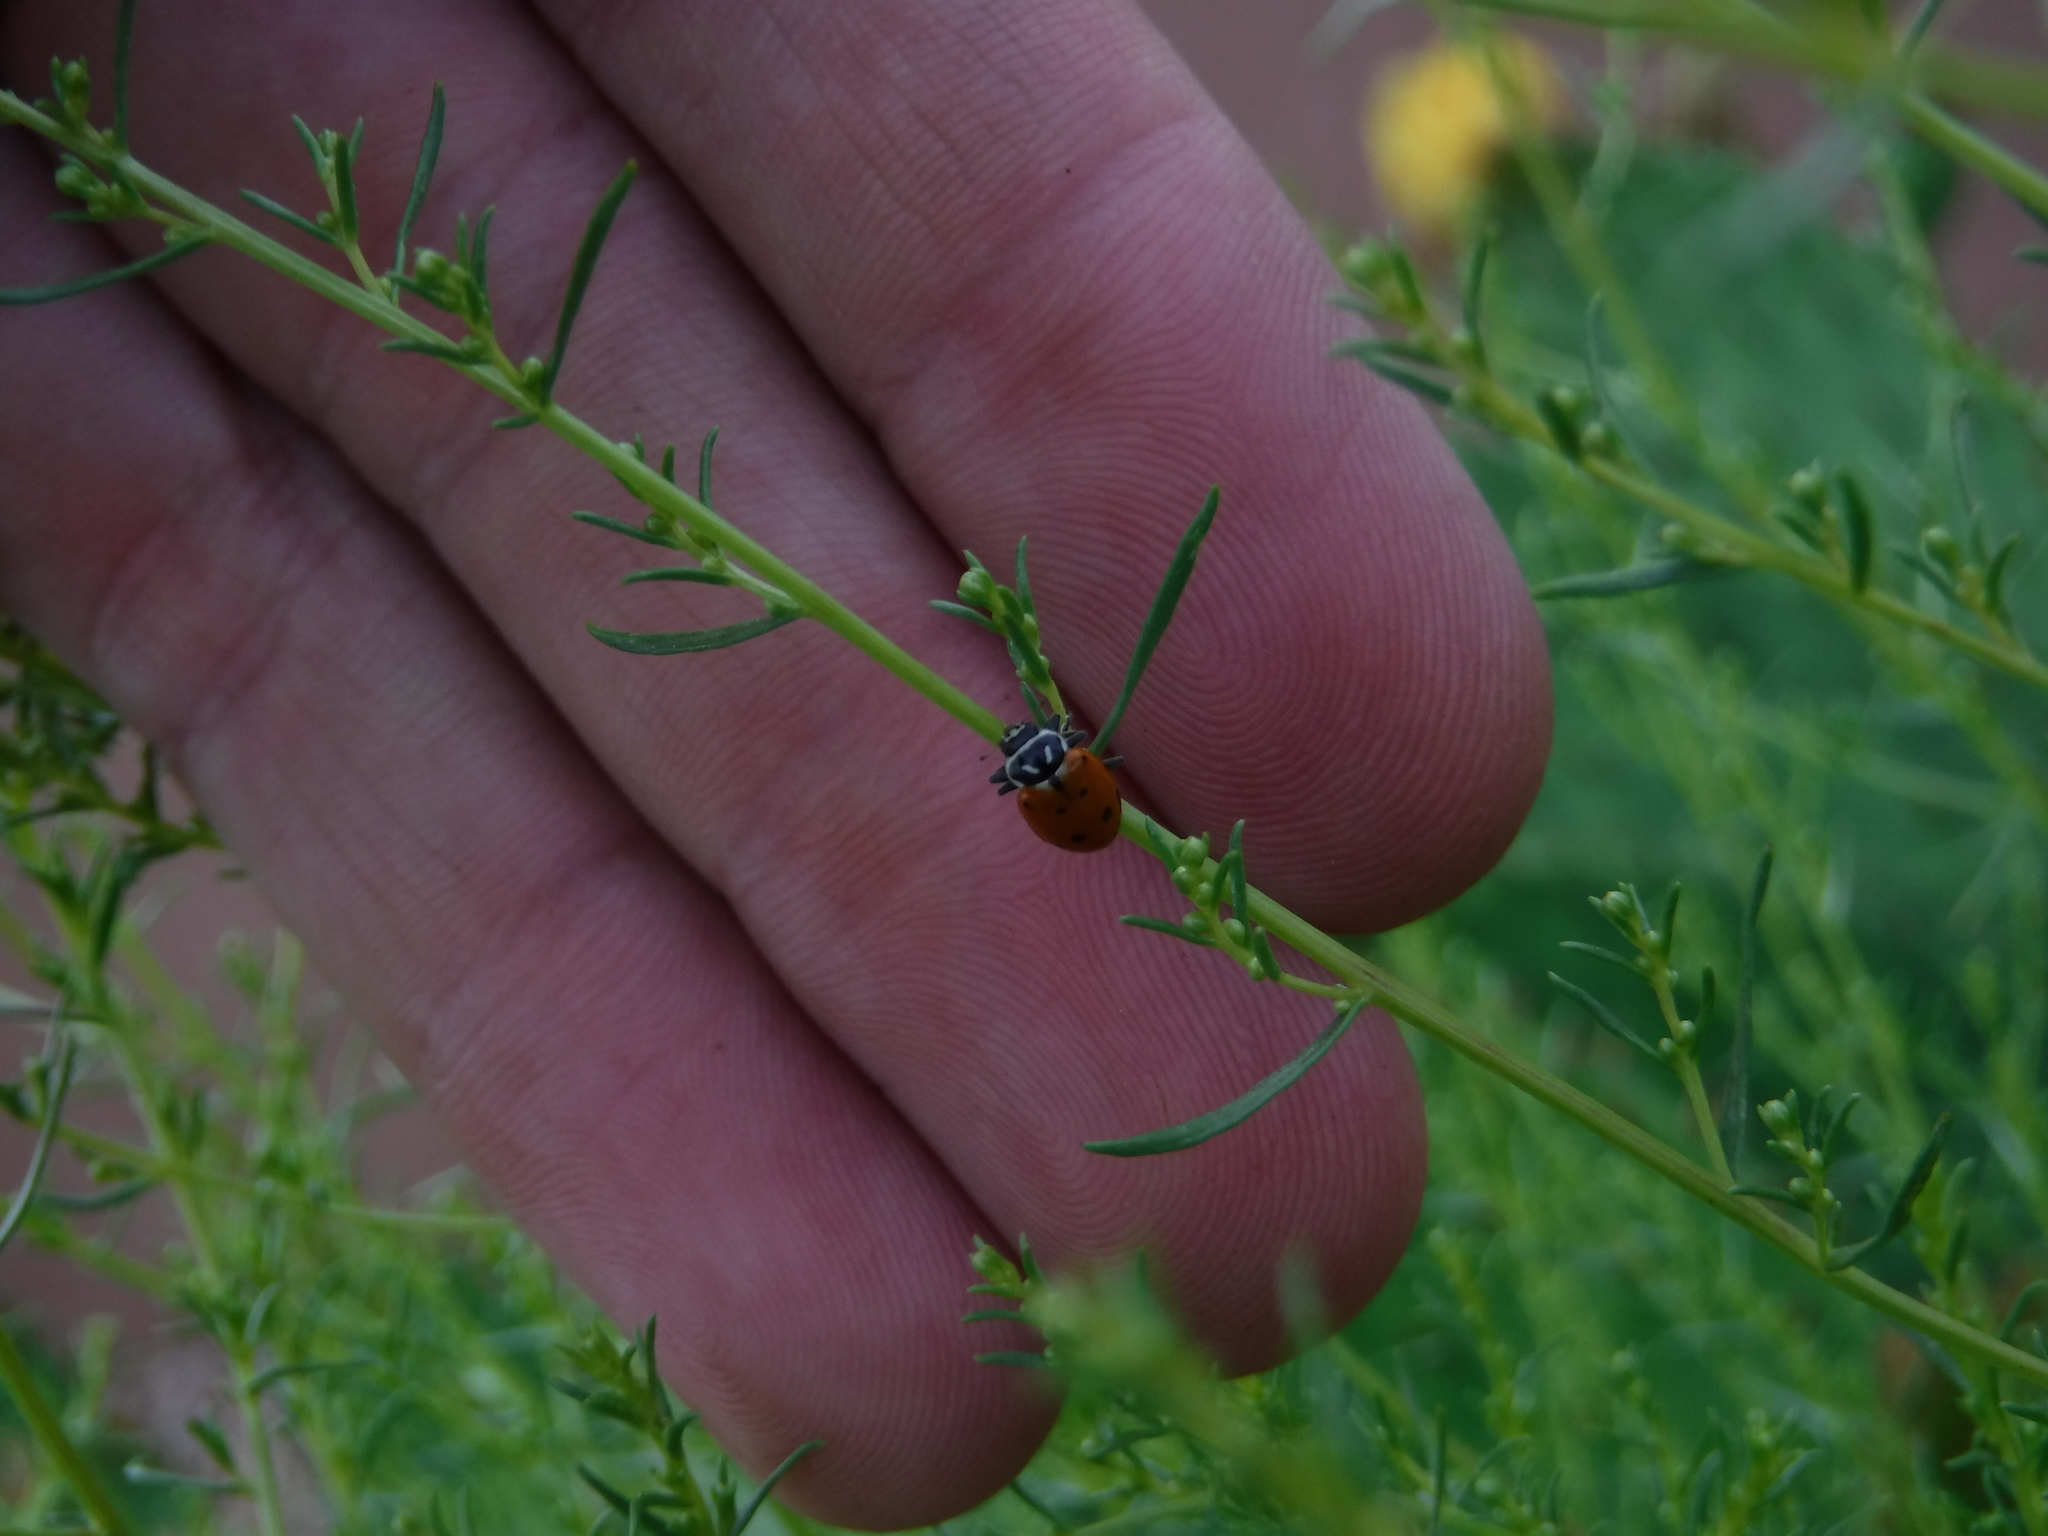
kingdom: Animalia
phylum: Arthropoda
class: Insecta
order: Coleoptera
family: Coccinellidae
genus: Hippodamia
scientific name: Hippodamia convergens
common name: Convergent lady beetle
